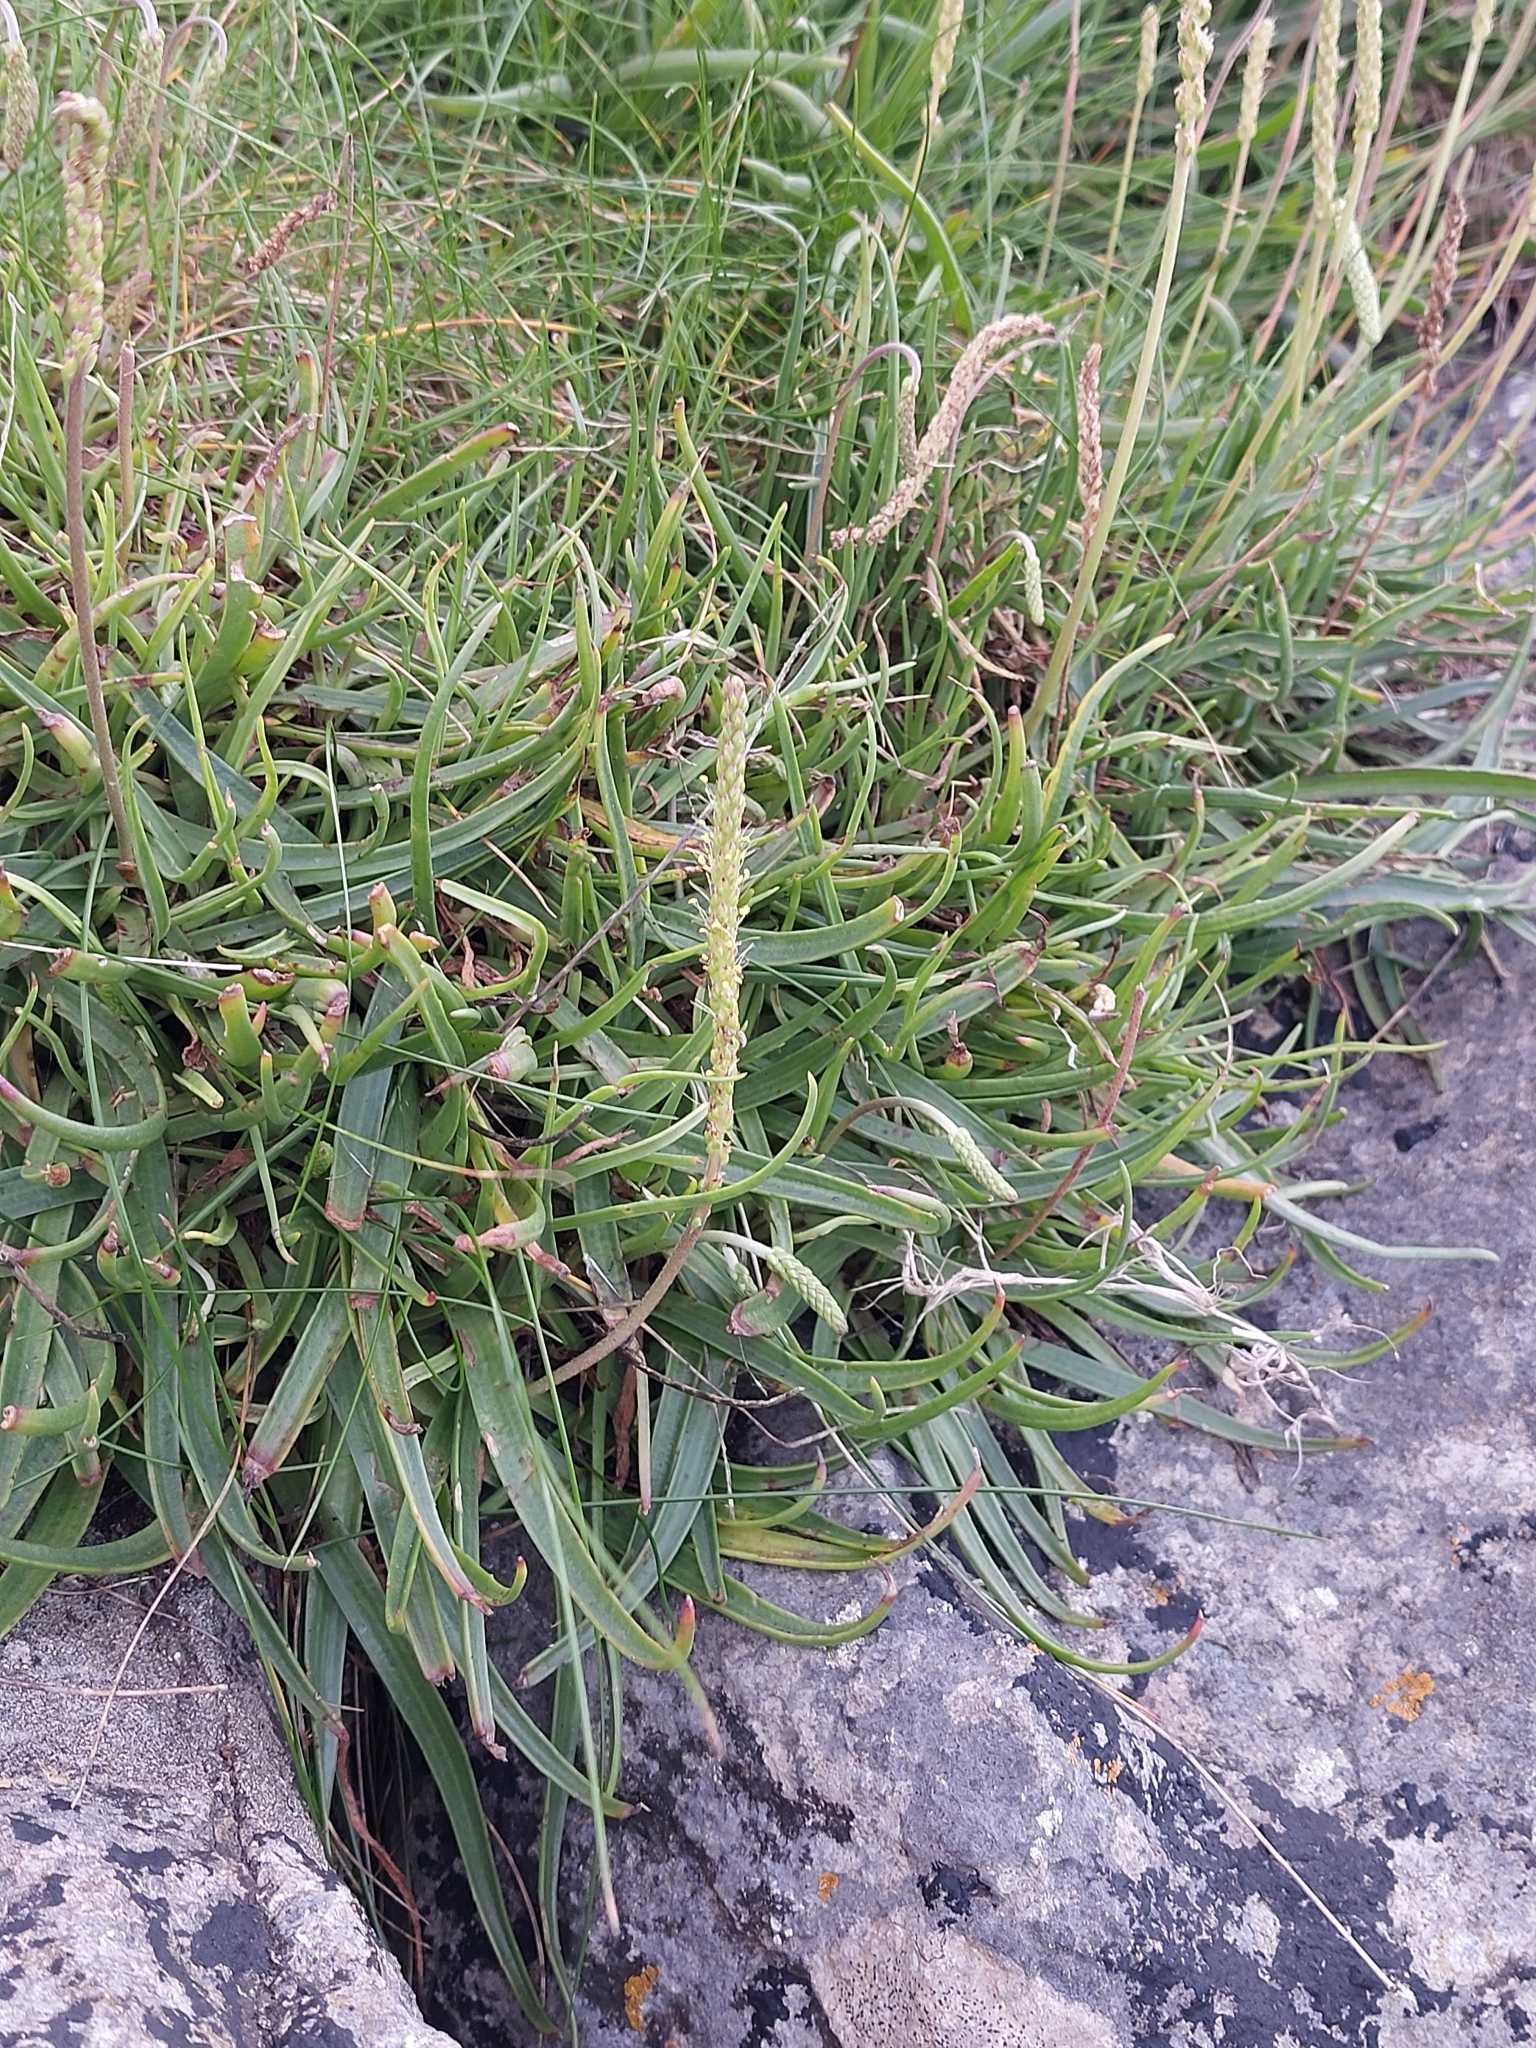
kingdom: Plantae
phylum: Tracheophyta
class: Magnoliopsida
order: Lamiales
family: Plantaginaceae
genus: Plantago
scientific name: Plantago maritima
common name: Sea plantain
